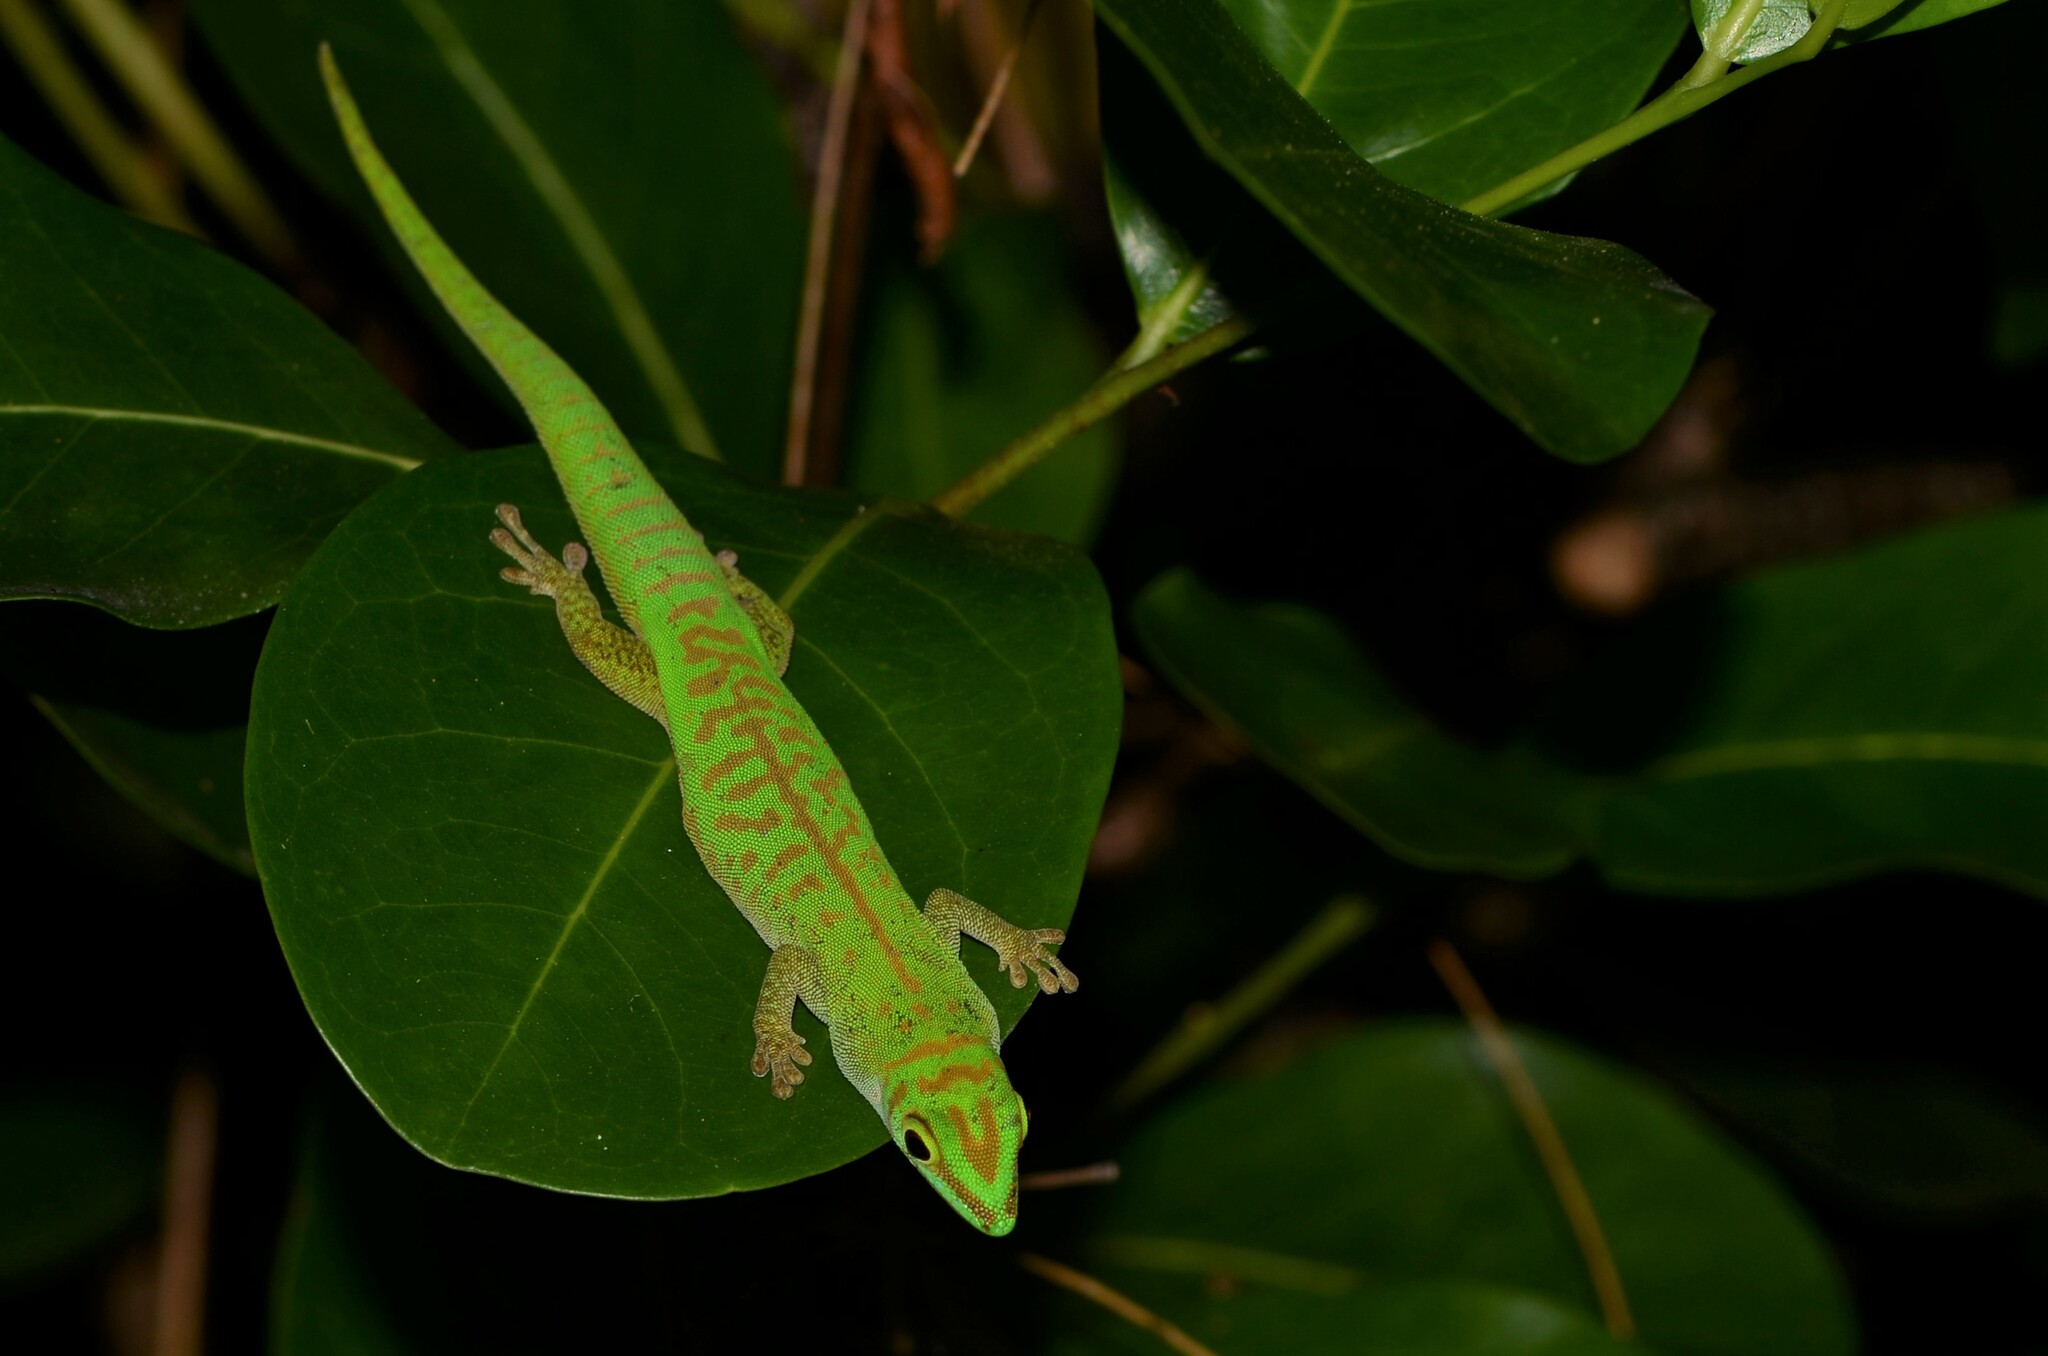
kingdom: Animalia
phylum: Chordata
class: Squamata
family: Gekkonidae
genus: Phelsuma
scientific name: Phelsuma astriata
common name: Seychelles day gecko
